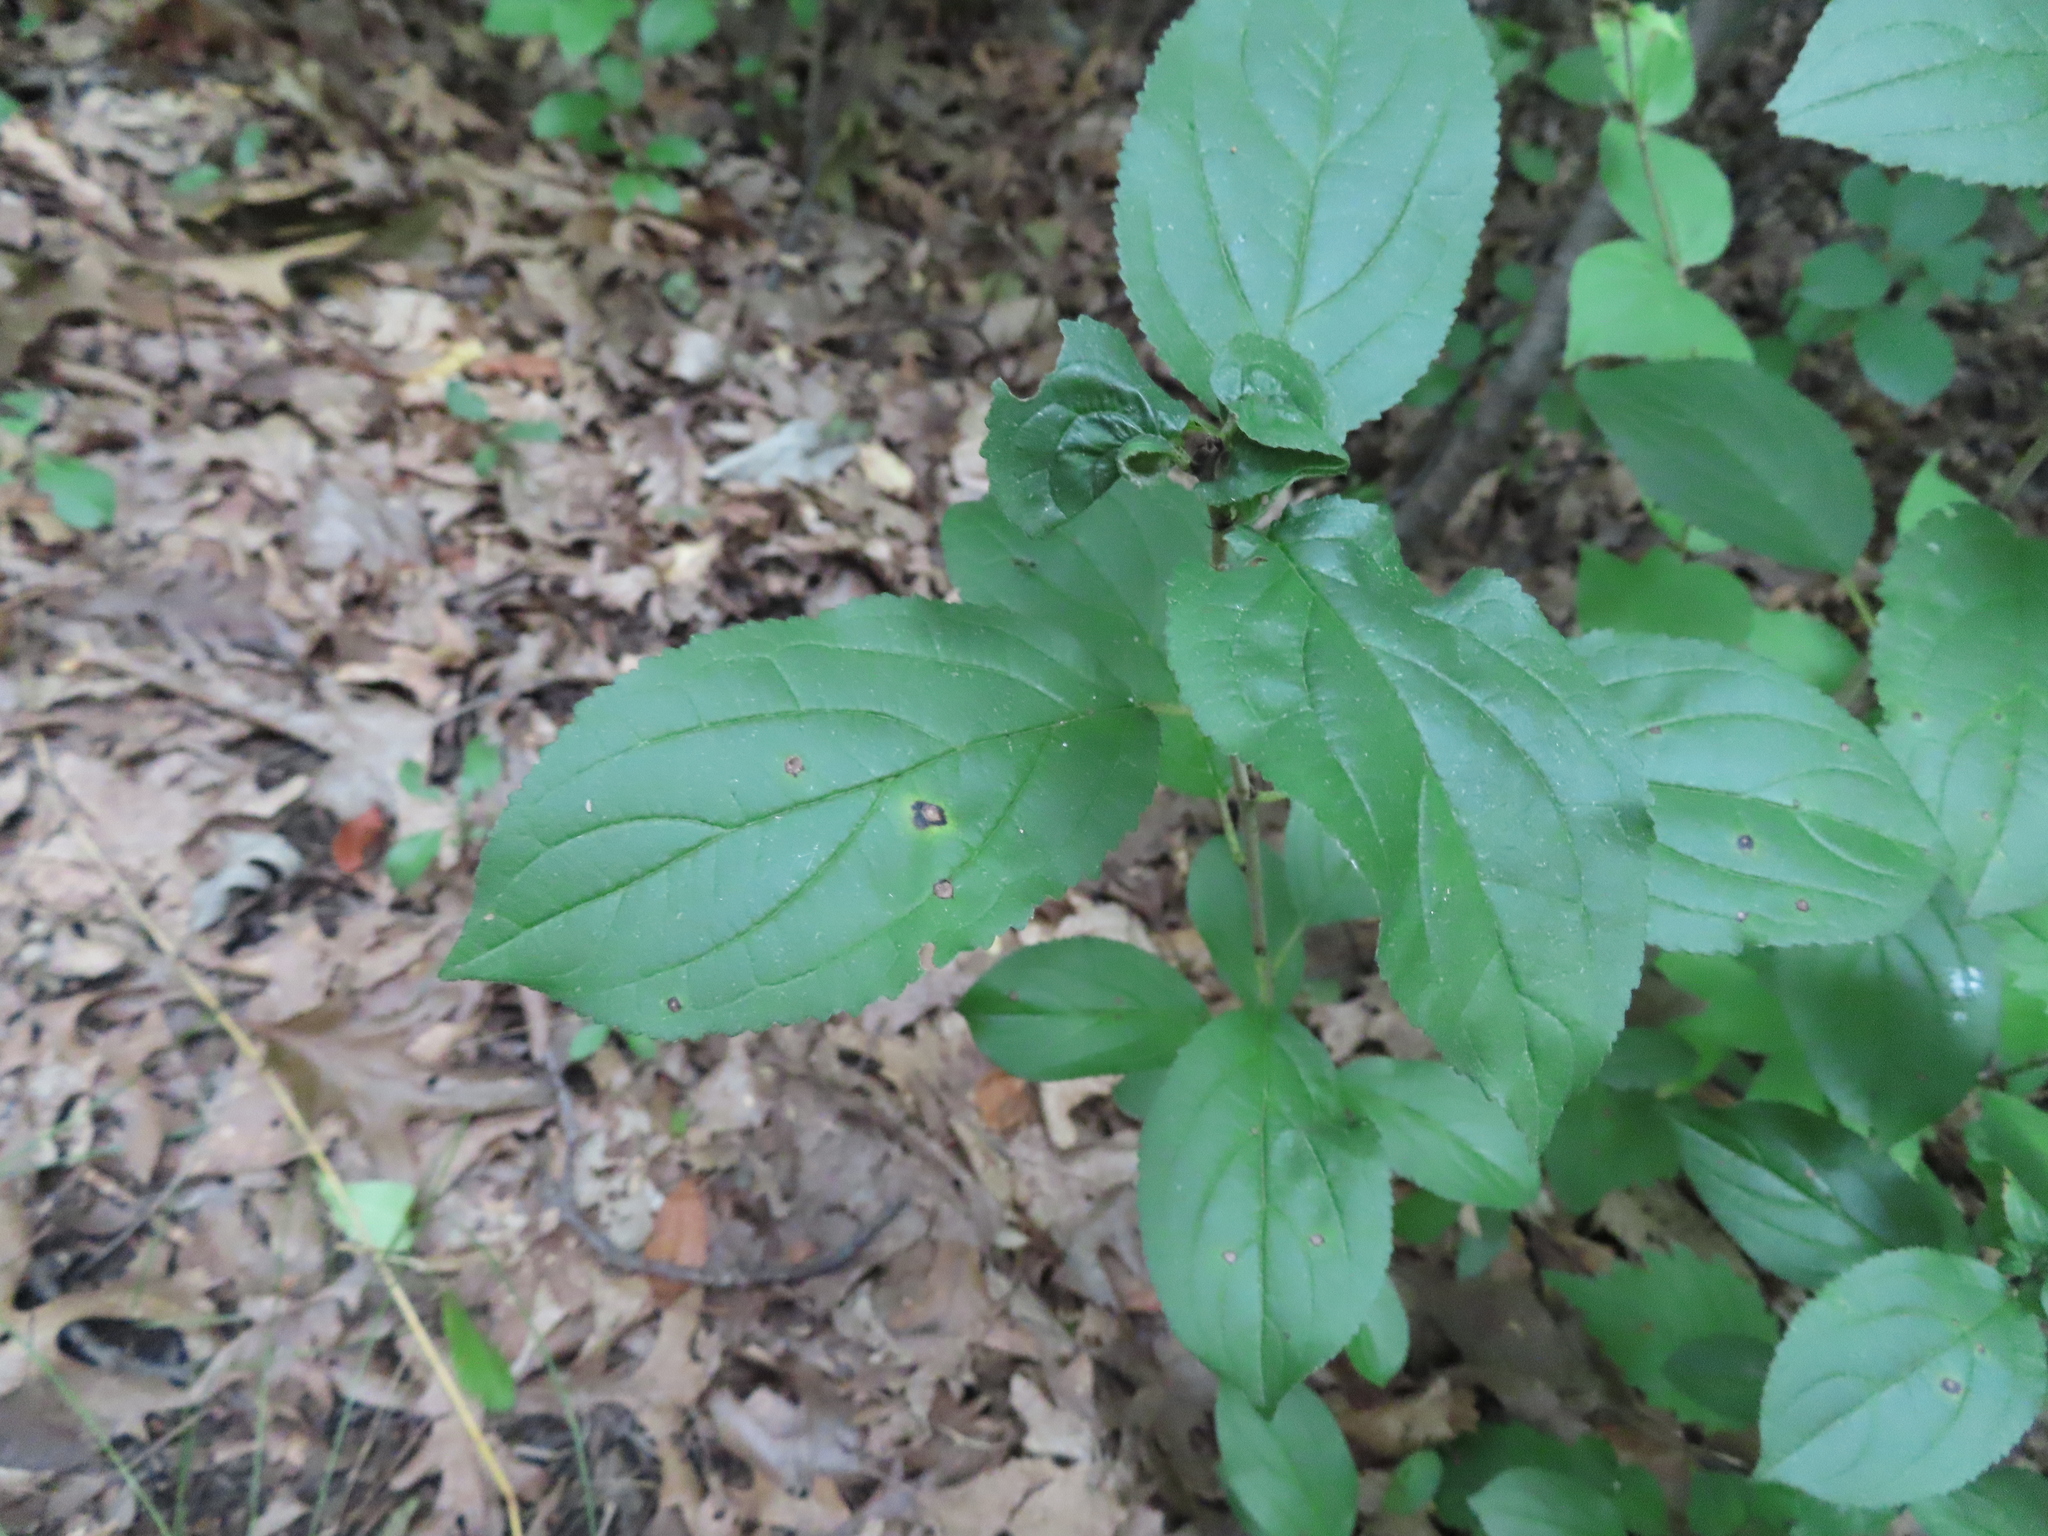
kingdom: Plantae
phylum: Tracheophyta
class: Magnoliopsida
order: Rosales
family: Rhamnaceae
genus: Rhamnus
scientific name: Rhamnus cathartica
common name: Common buckthorn
